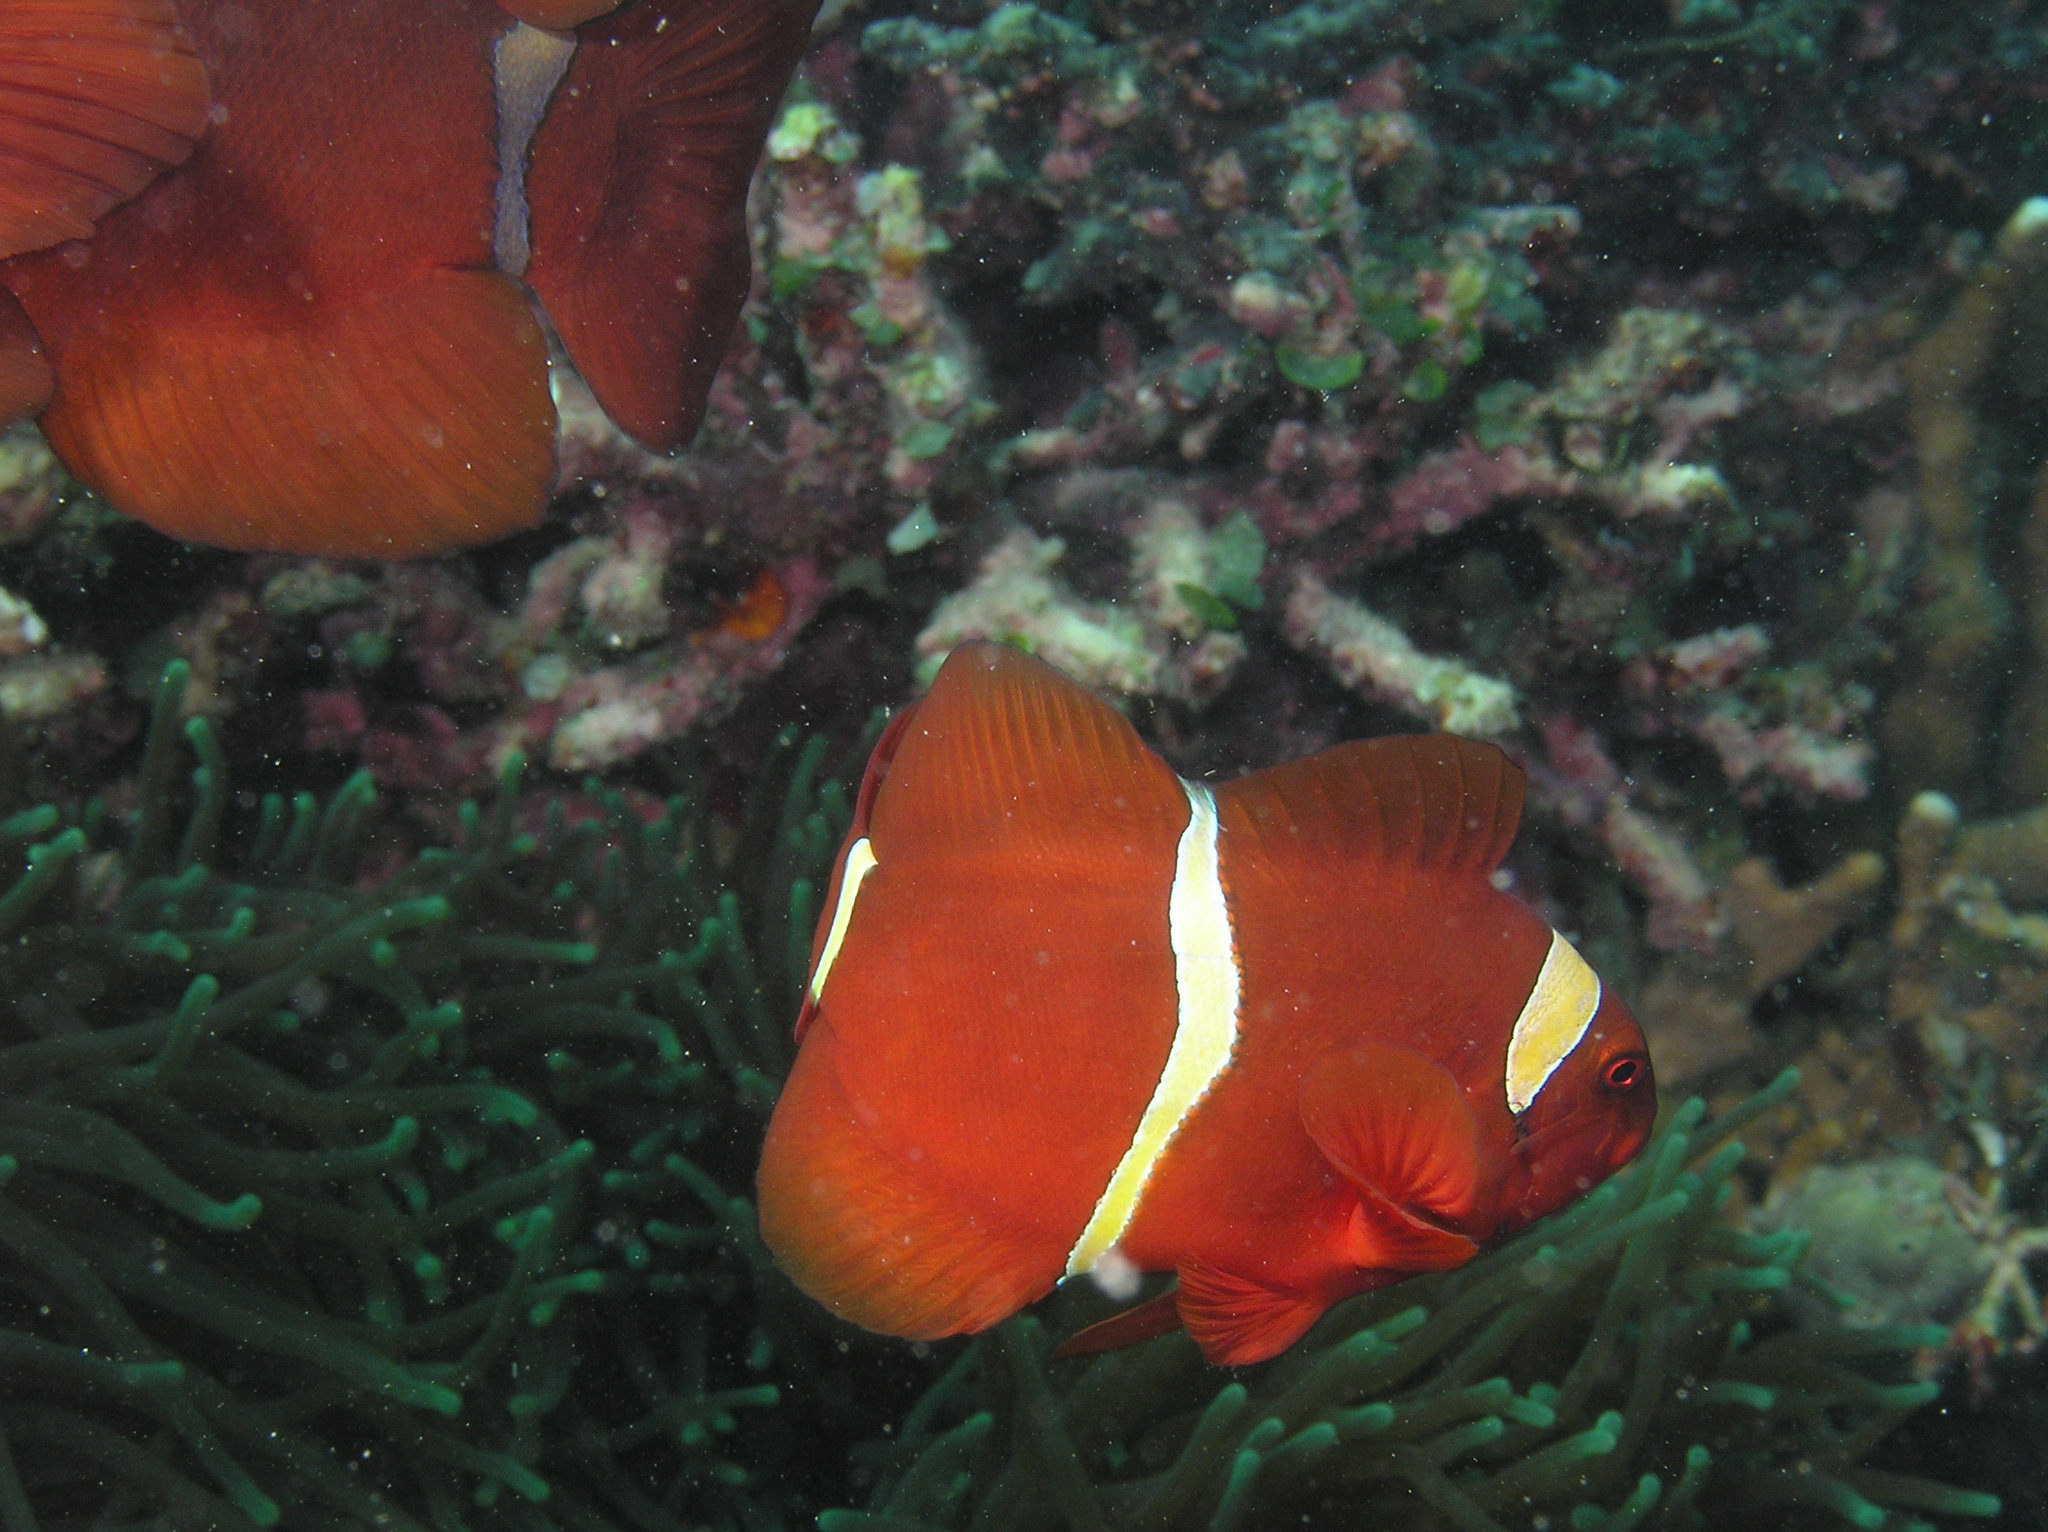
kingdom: Animalia
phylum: Chordata
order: Perciformes
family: Pomacentridae
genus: Premnas
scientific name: Premnas biaculeatus
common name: Spinecheek anemonefish
